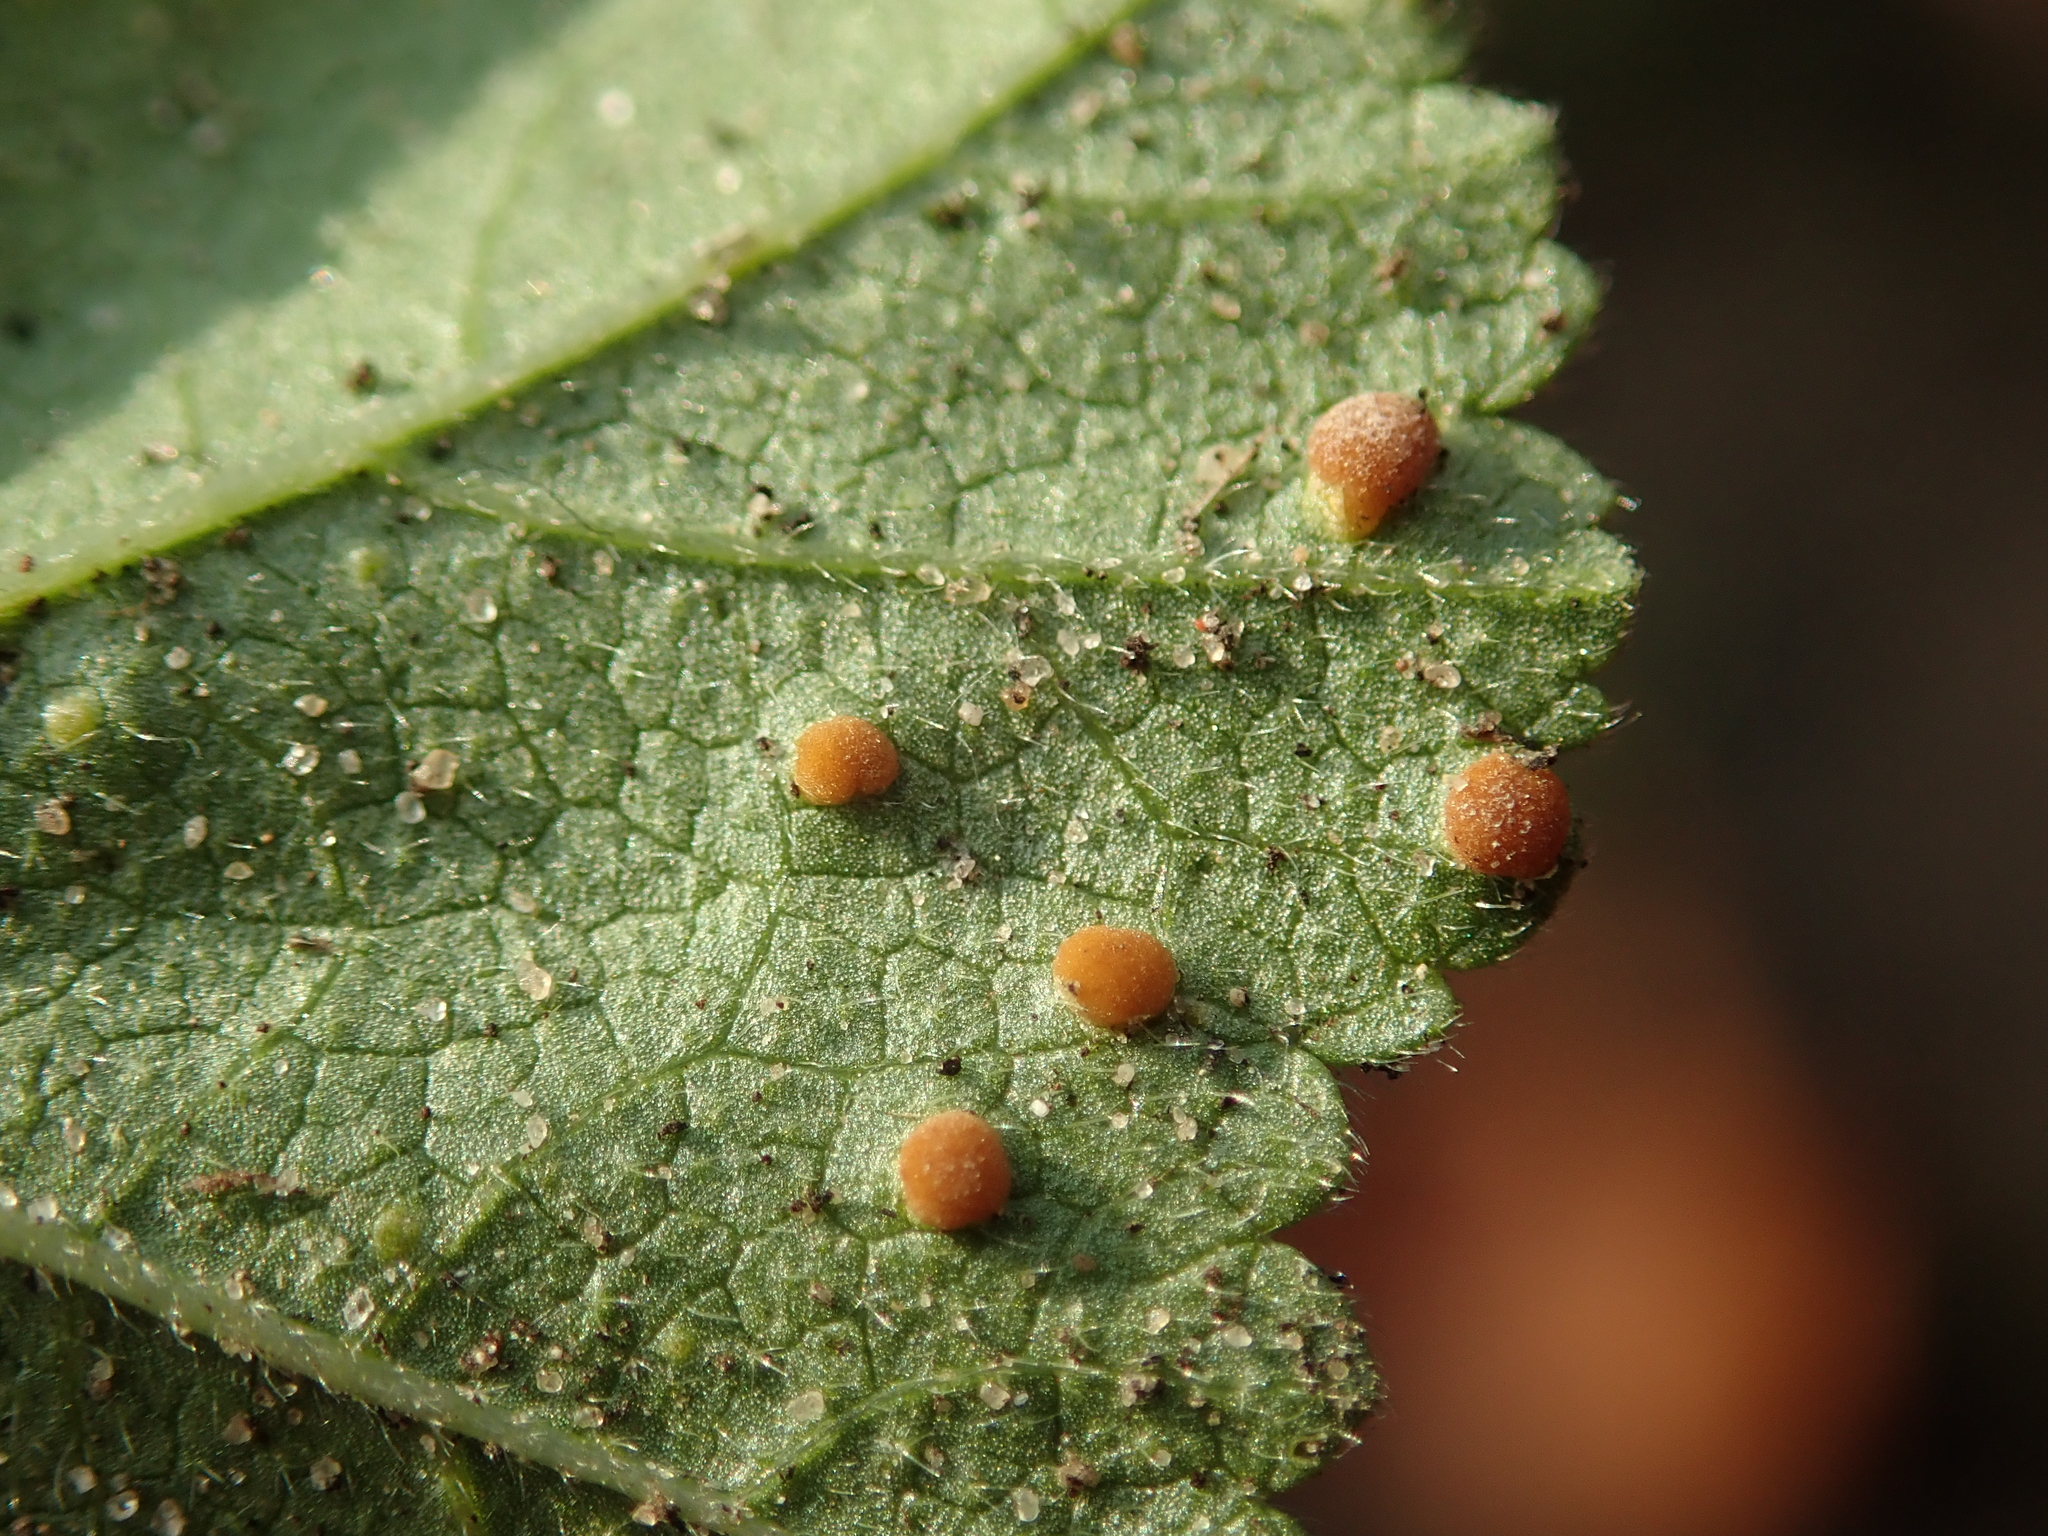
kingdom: Fungi
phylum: Basidiomycota
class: Pucciniomycetes
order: Pucciniales
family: Pucciniaceae
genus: Puccinia
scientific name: Puccinia malvacearum
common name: Hollyhock rust
